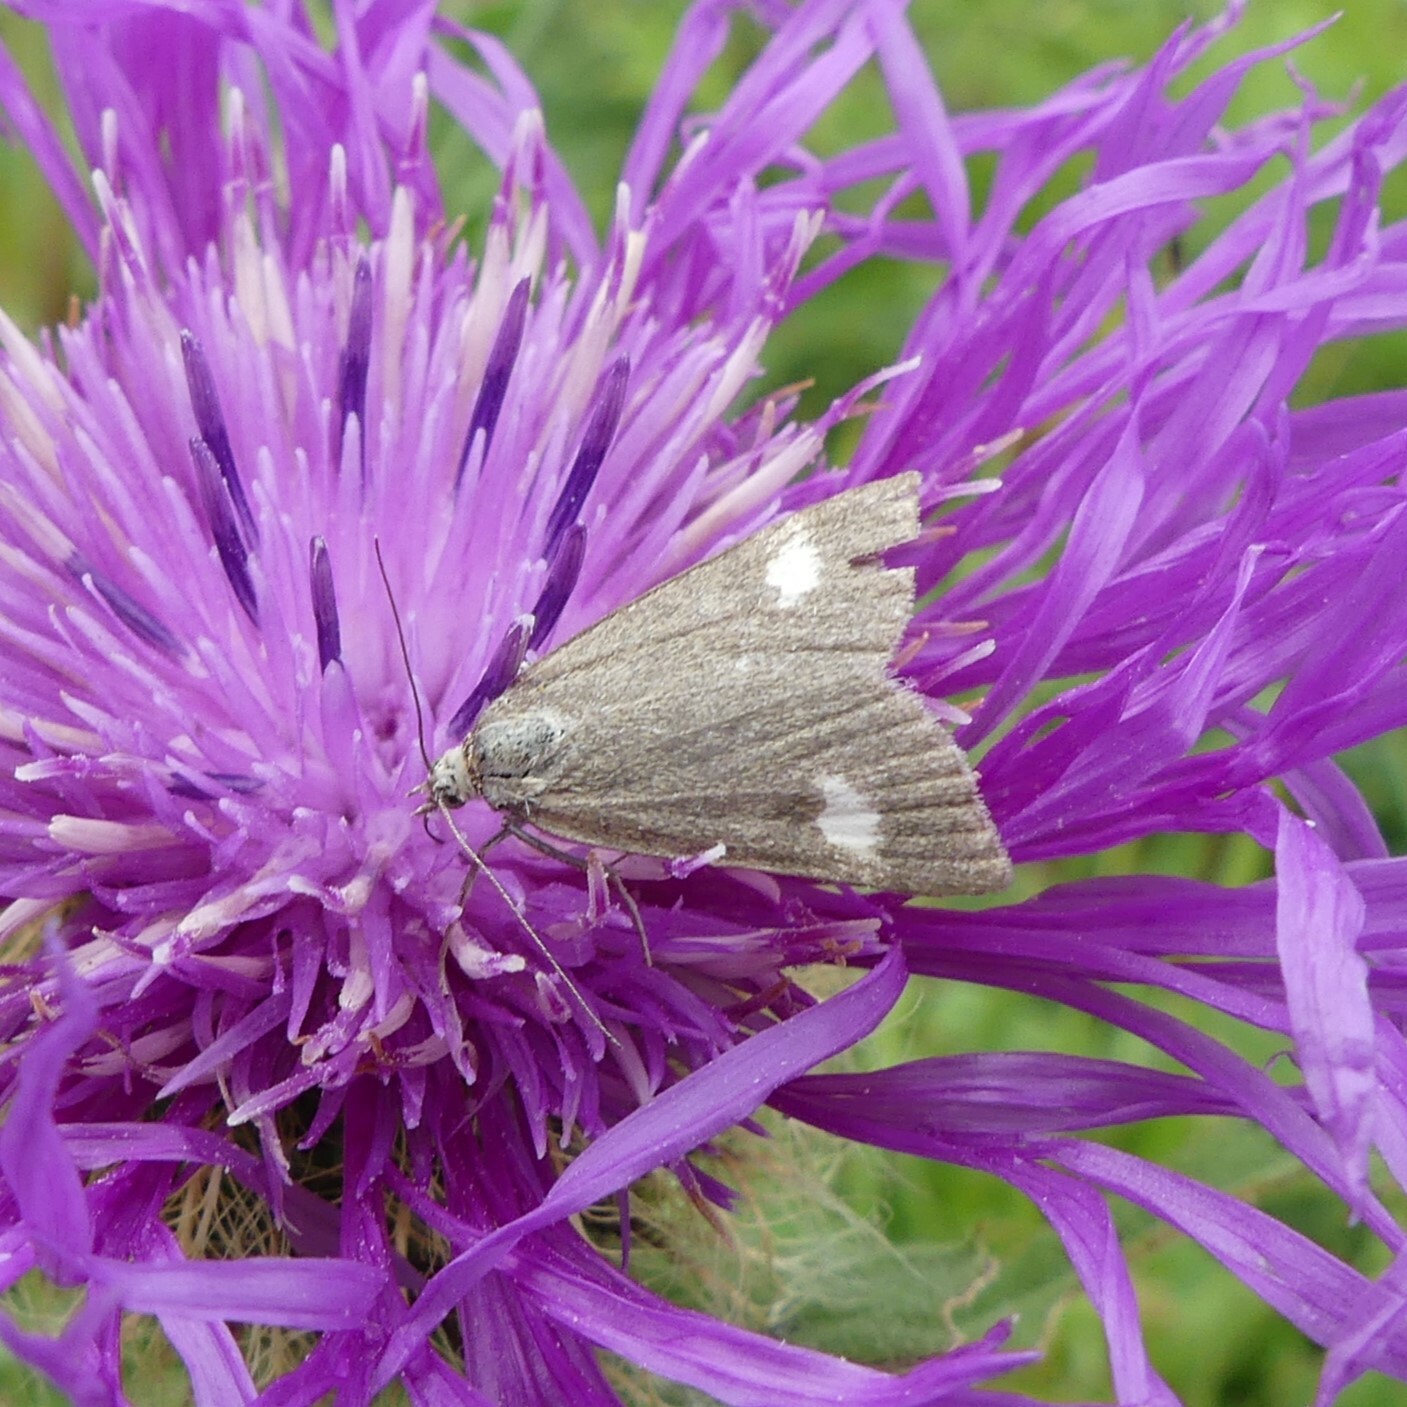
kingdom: Animalia
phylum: Arthropoda
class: Insecta
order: Lepidoptera
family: Crambidae
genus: Pyrausta
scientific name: Pyrausta alpinalis
